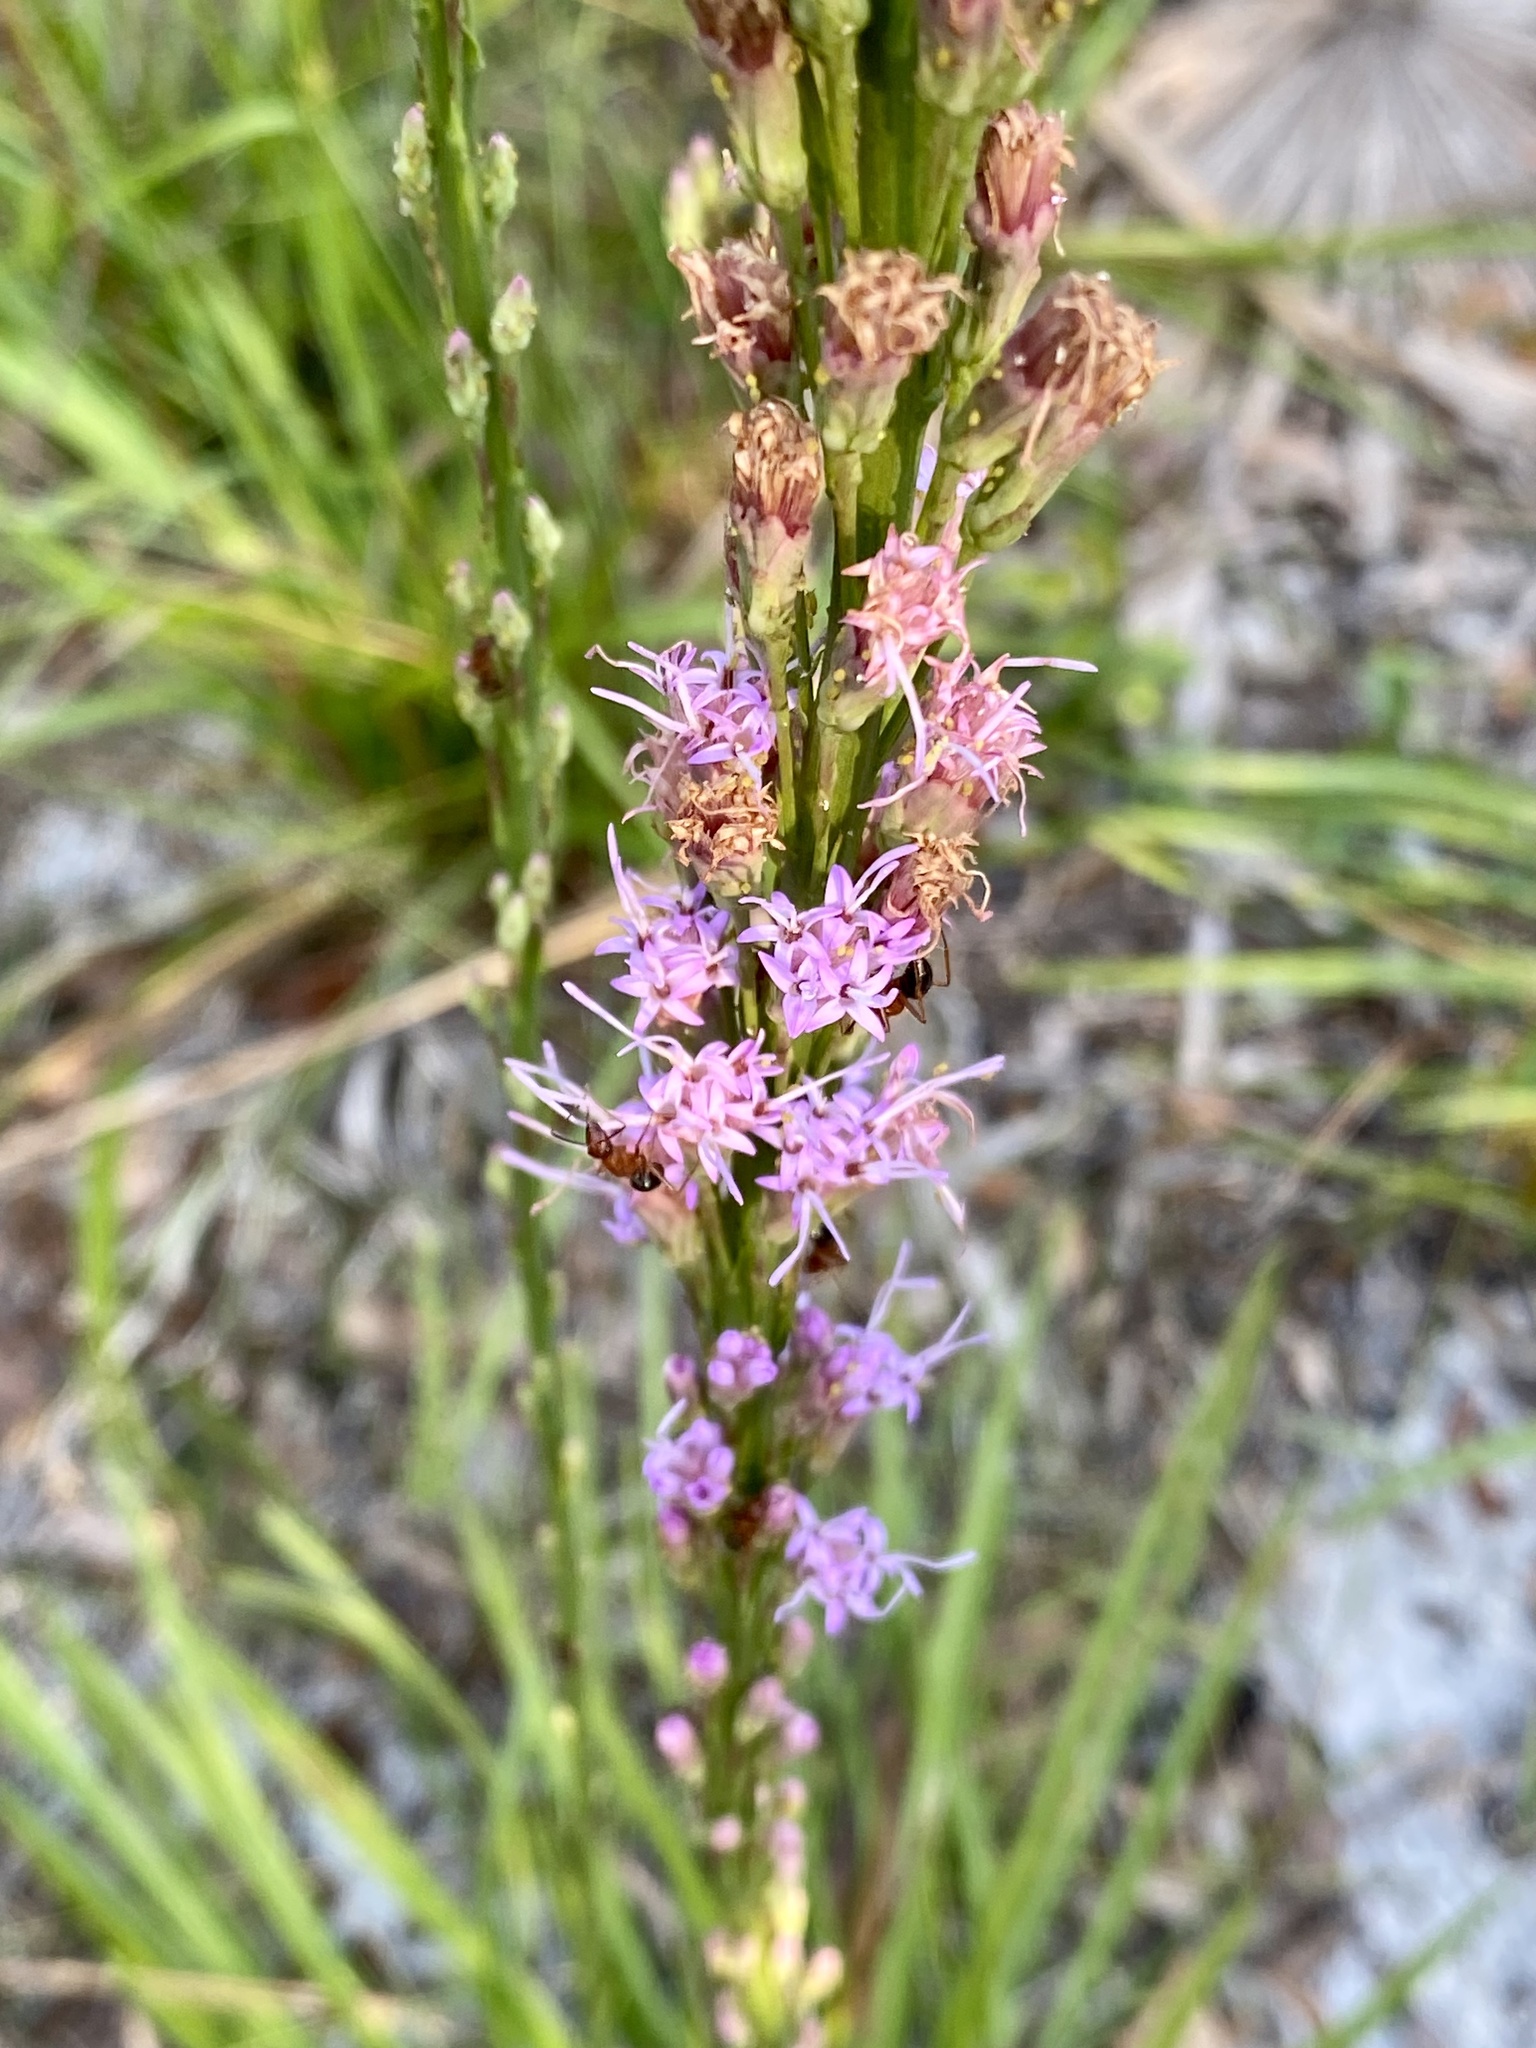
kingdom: Plantae
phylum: Tracheophyta
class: Magnoliopsida
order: Asterales
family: Asteraceae
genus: Liatris
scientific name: Liatris laevigata
